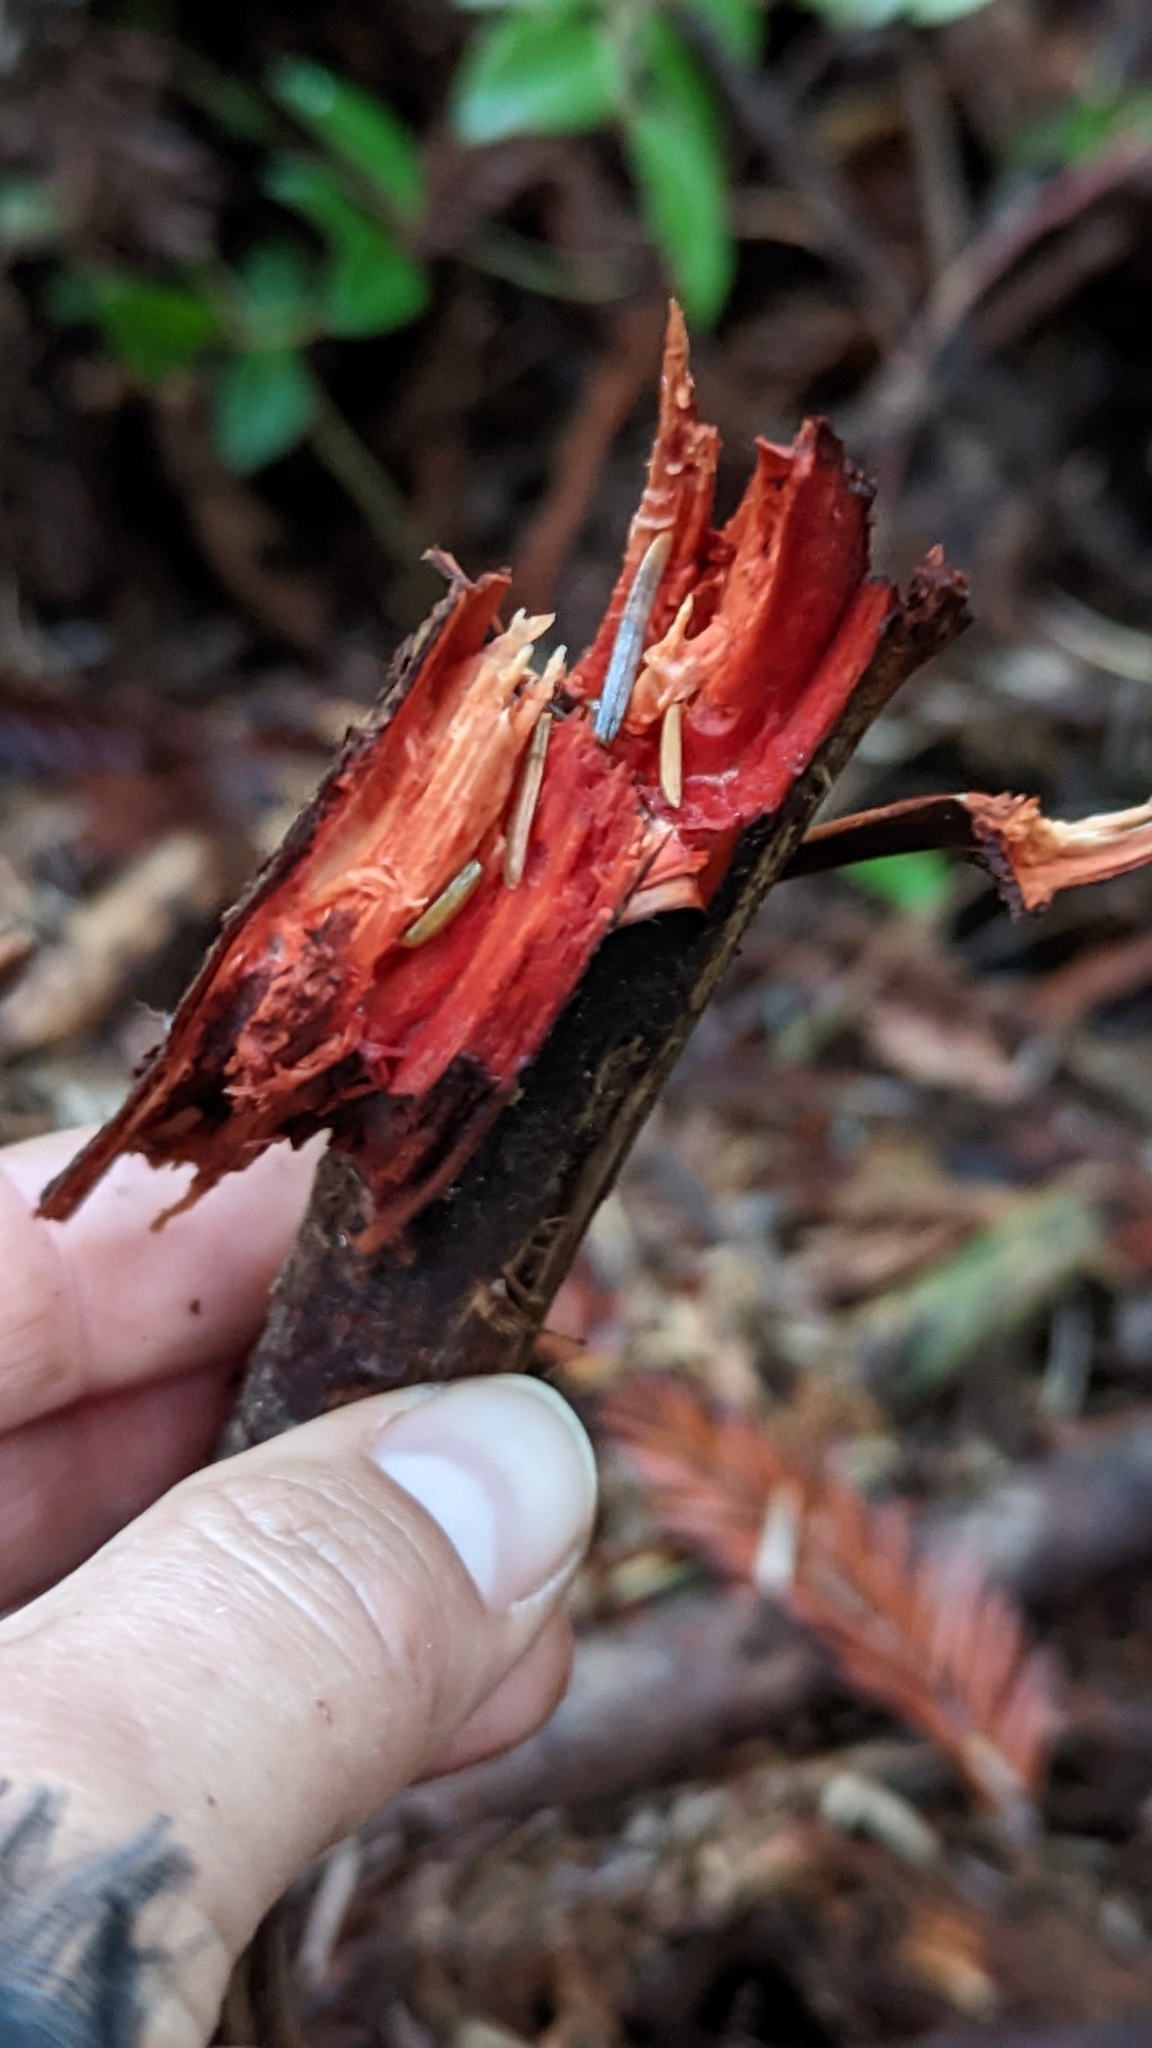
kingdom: Fungi
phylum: Basidiomycota
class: Agaricomycetes
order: Polyporales
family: Phanerochaetaceae
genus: Atheliachaete
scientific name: Atheliachaete sanguinea
